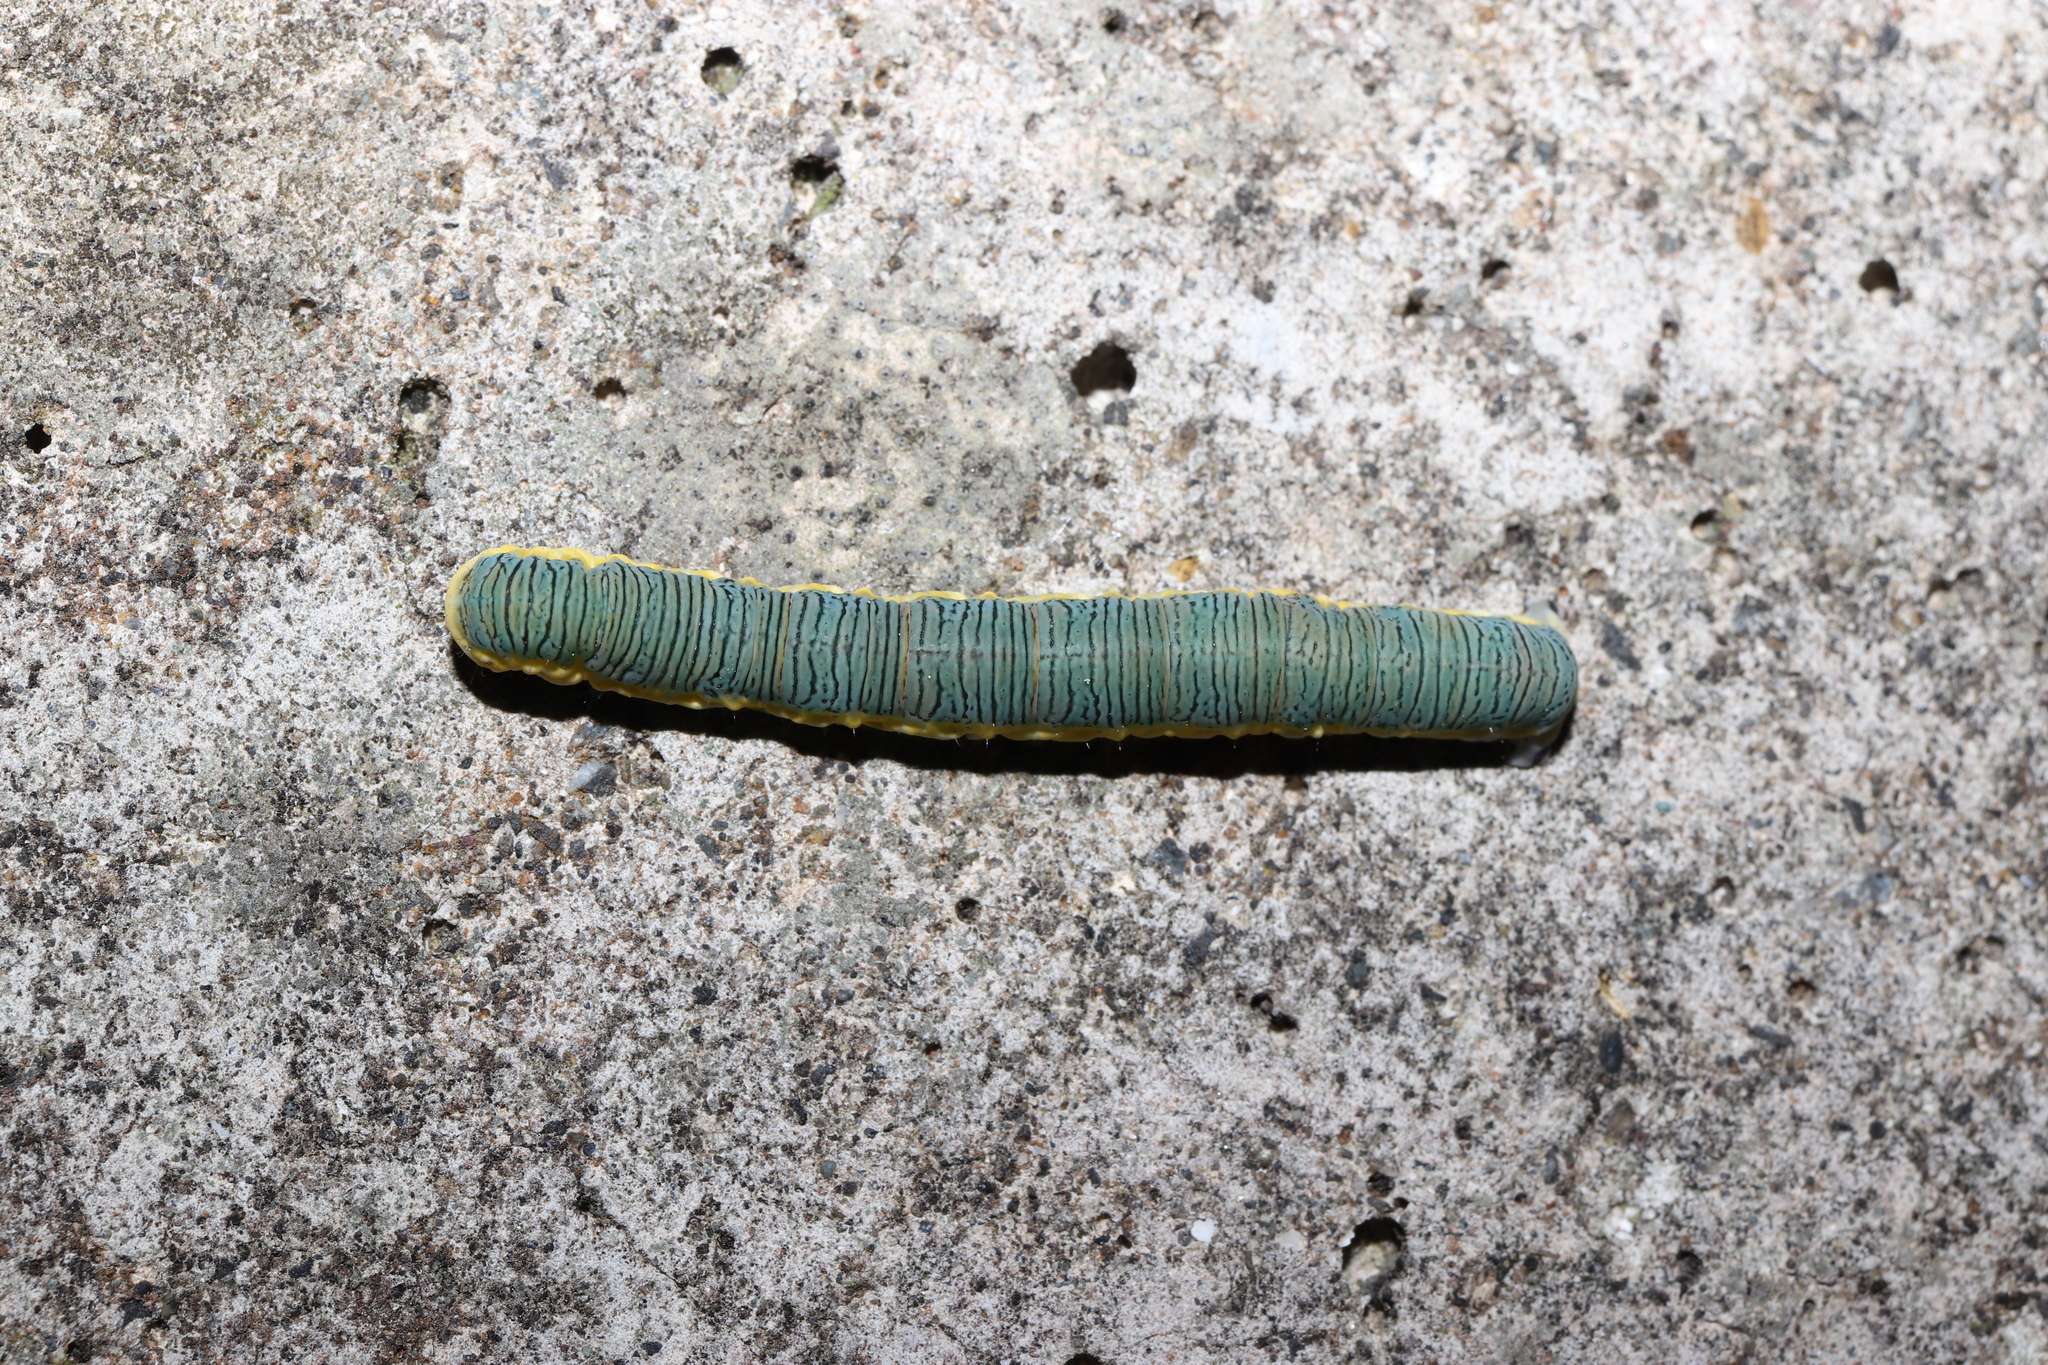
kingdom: Animalia
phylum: Arthropoda
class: Insecta
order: Lepidoptera
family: Geometridae
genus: Euryobeidia
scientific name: Euryobeidia languidata
